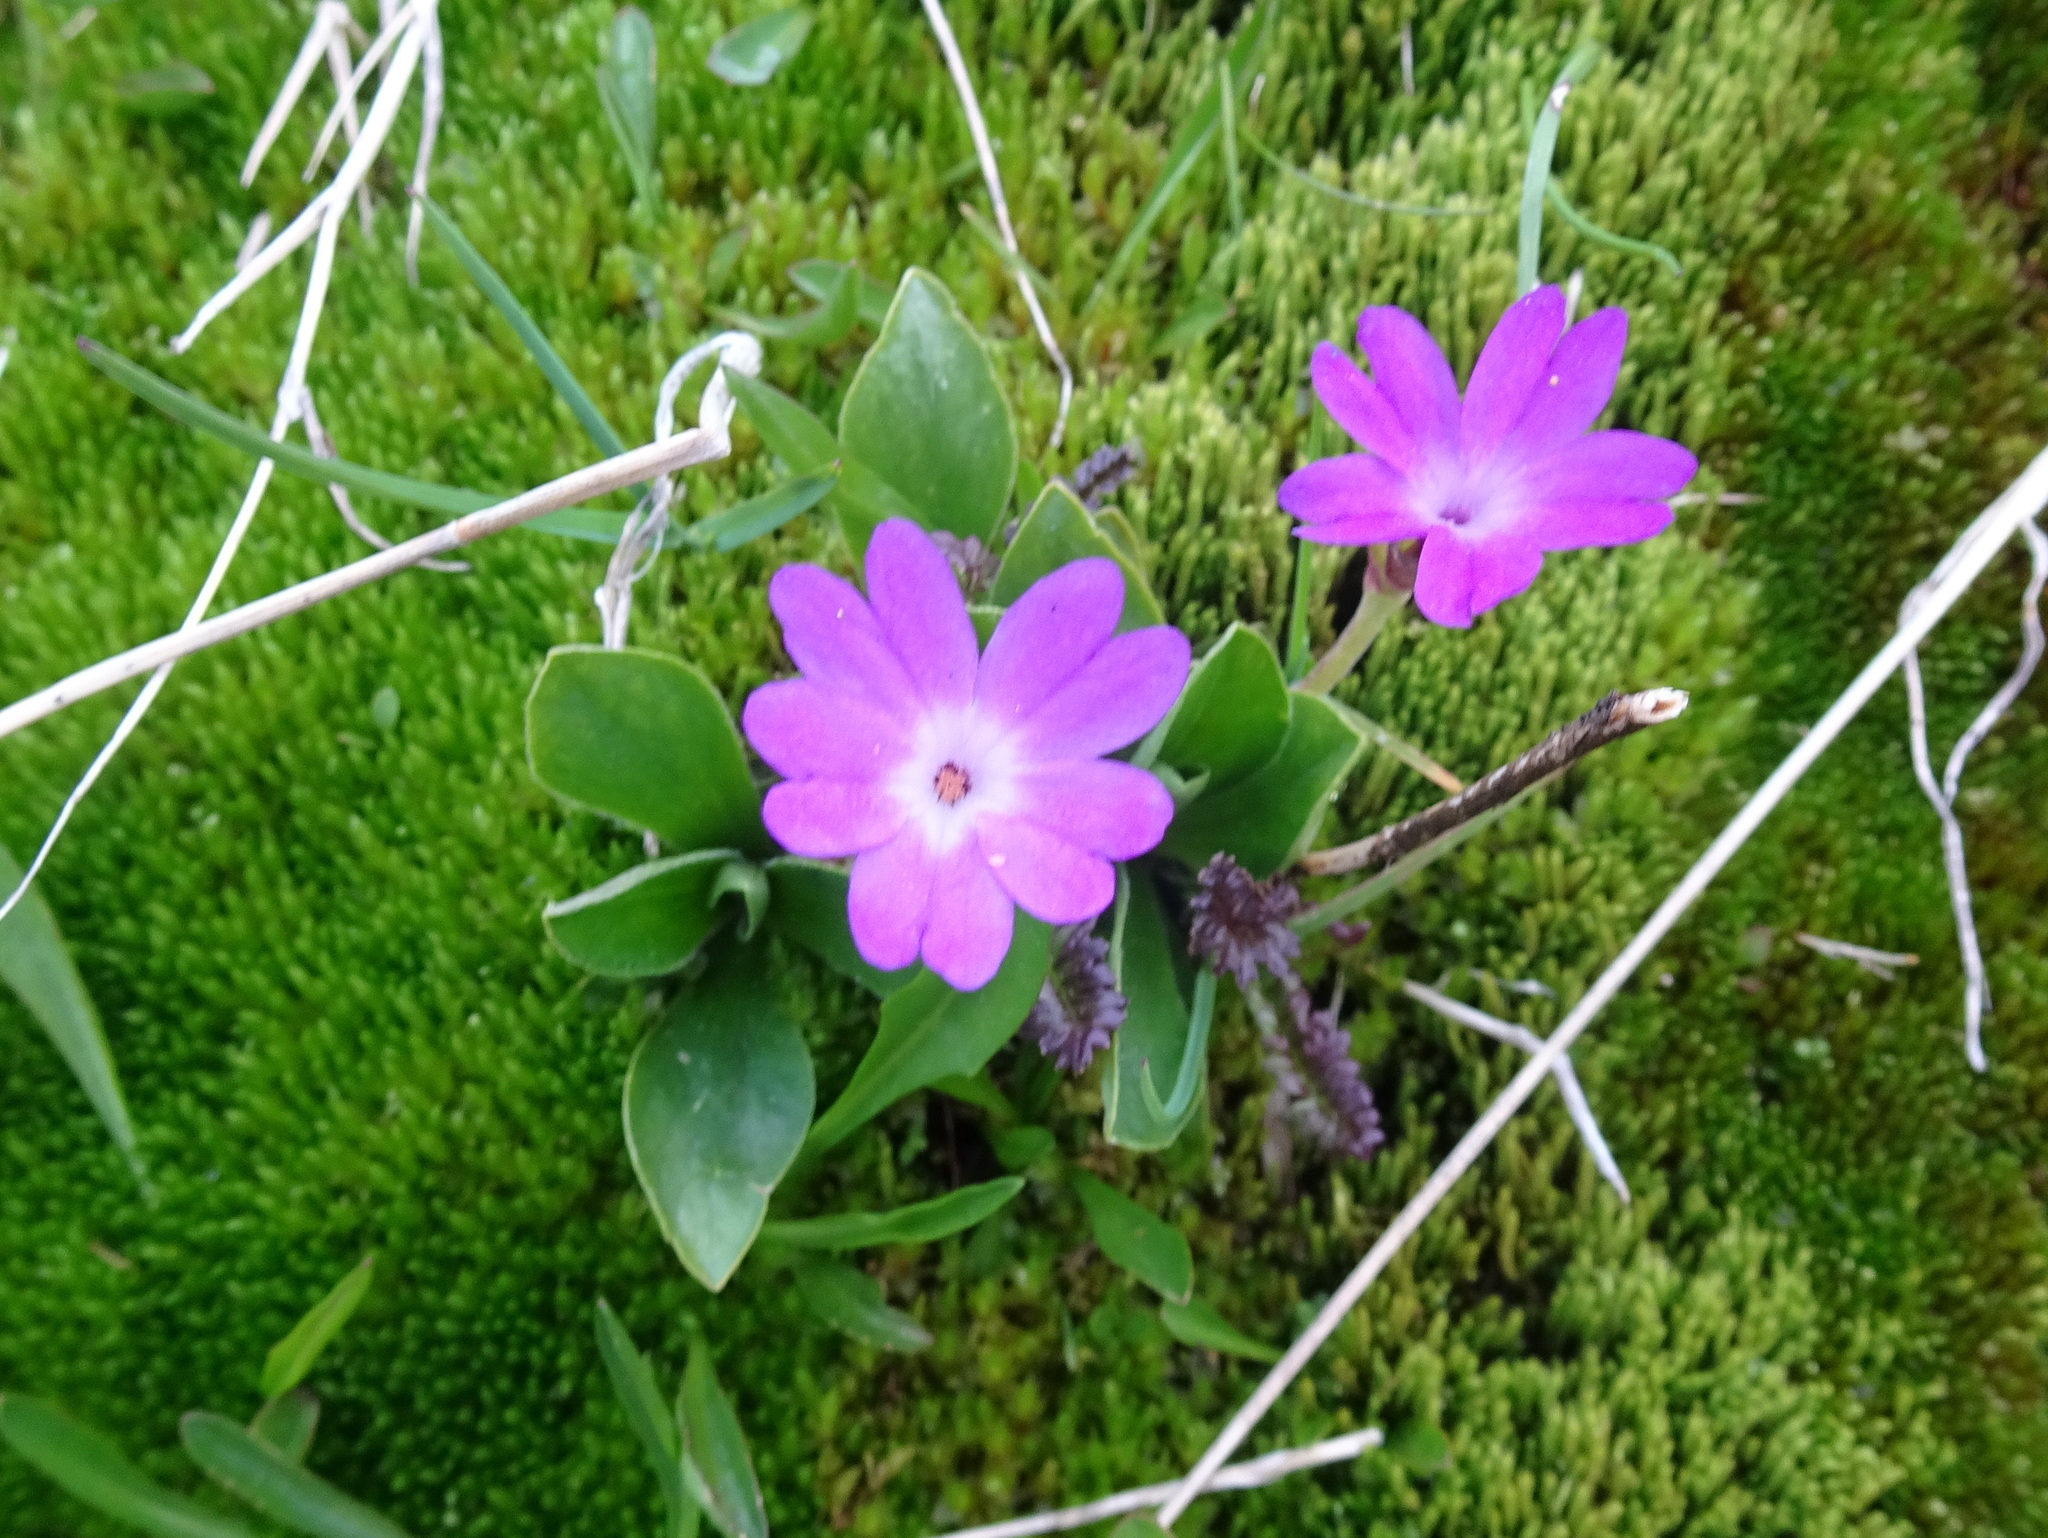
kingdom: Plantae
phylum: Tracheophyta
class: Magnoliopsida
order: Ericales
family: Primulaceae
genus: Primula
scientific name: Primula integrifolia
